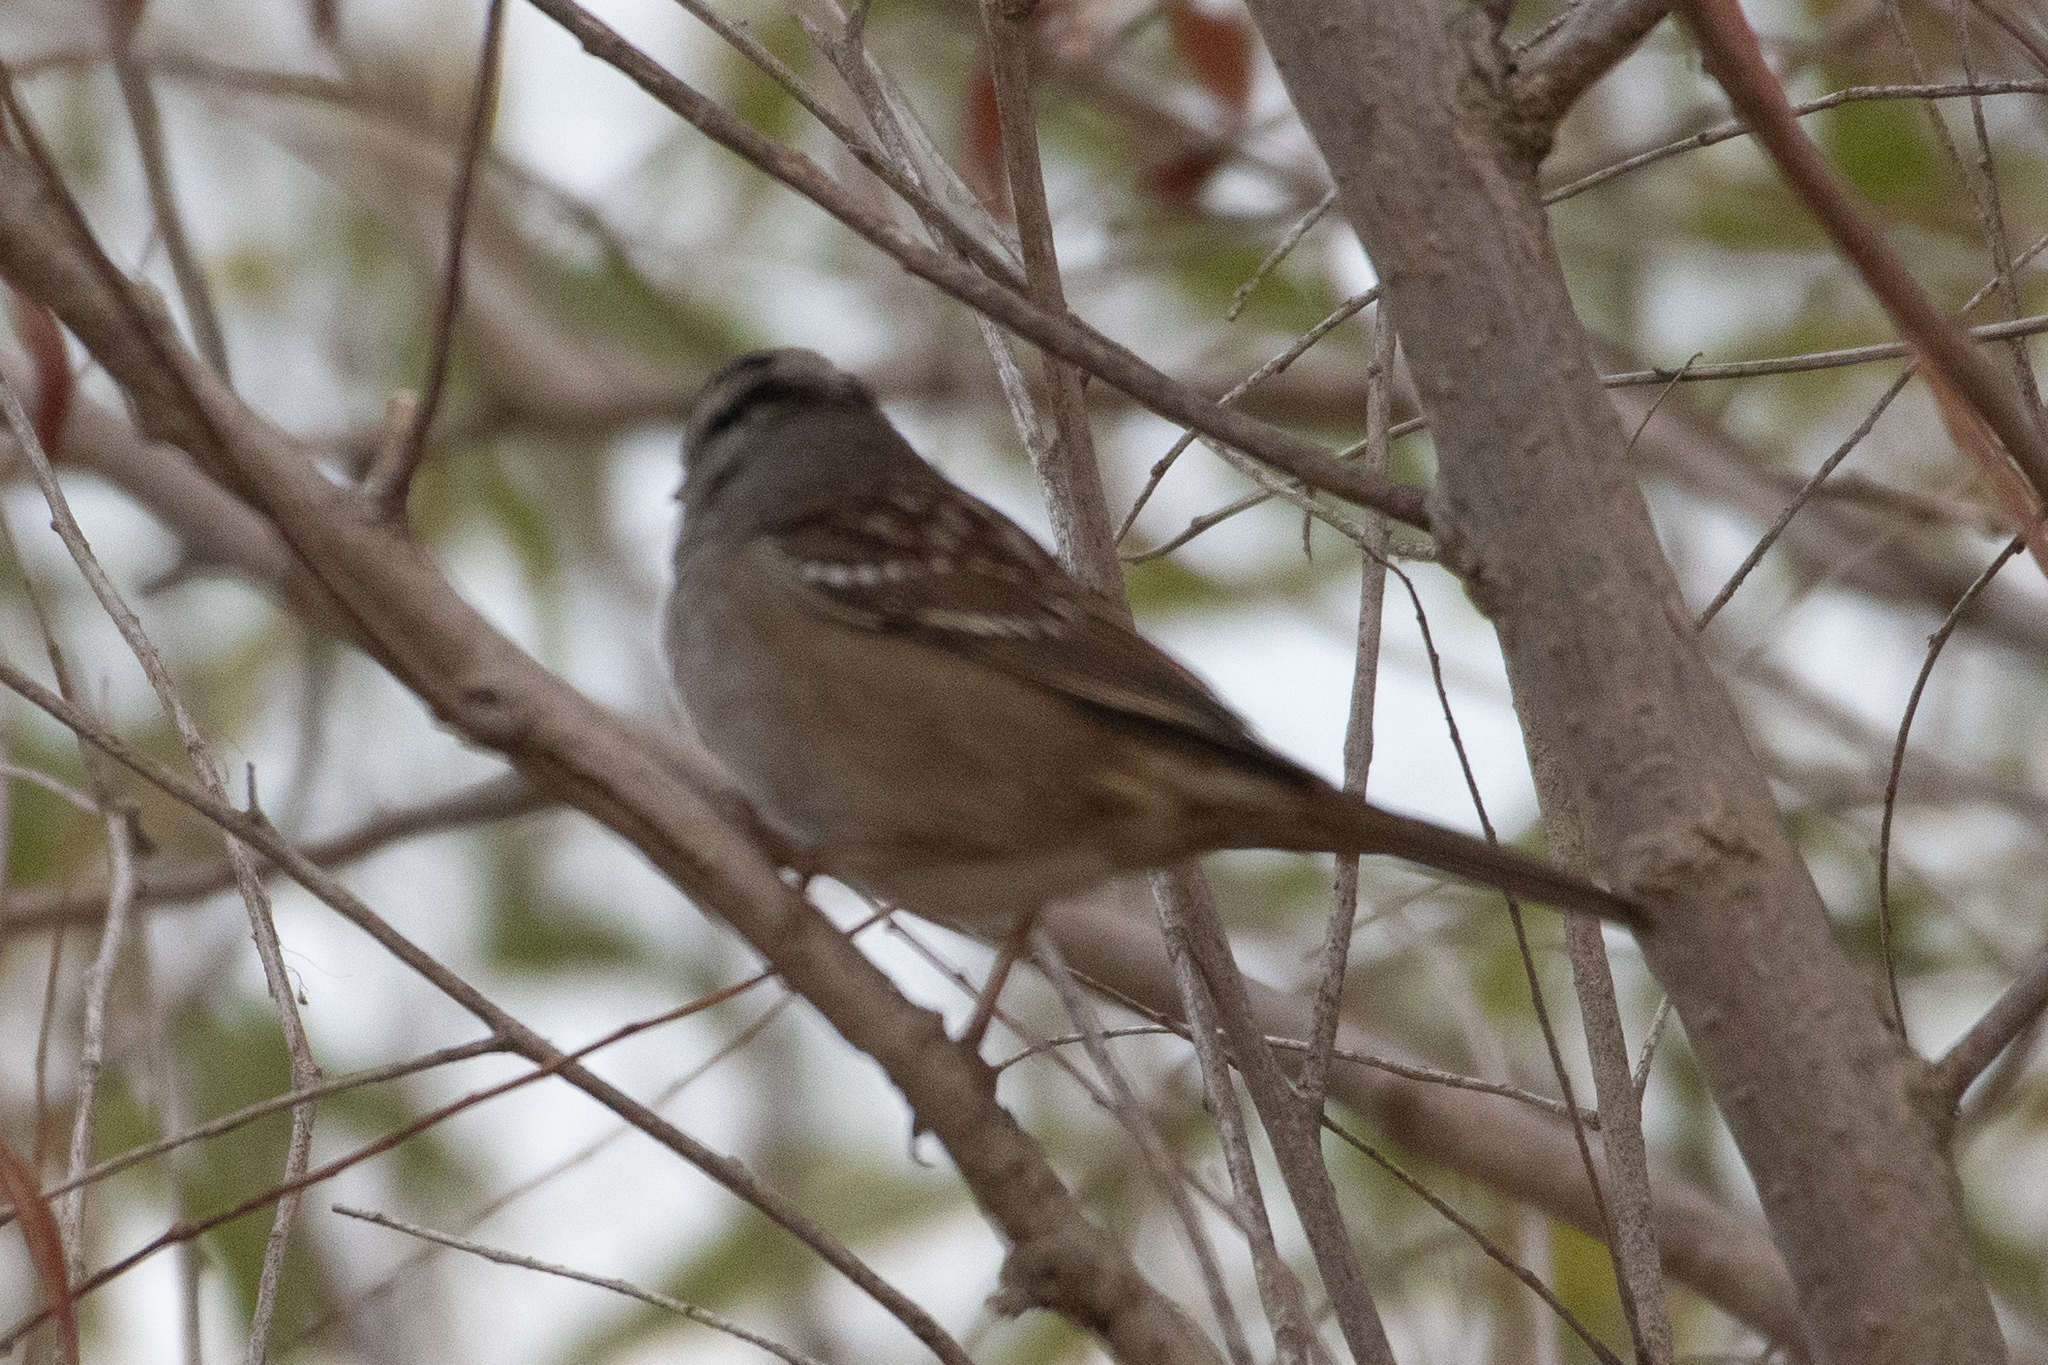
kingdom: Animalia
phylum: Chordata
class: Aves
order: Passeriformes
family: Passerellidae
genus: Zonotrichia
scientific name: Zonotrichia leucophrys
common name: White-crowned sparrow
